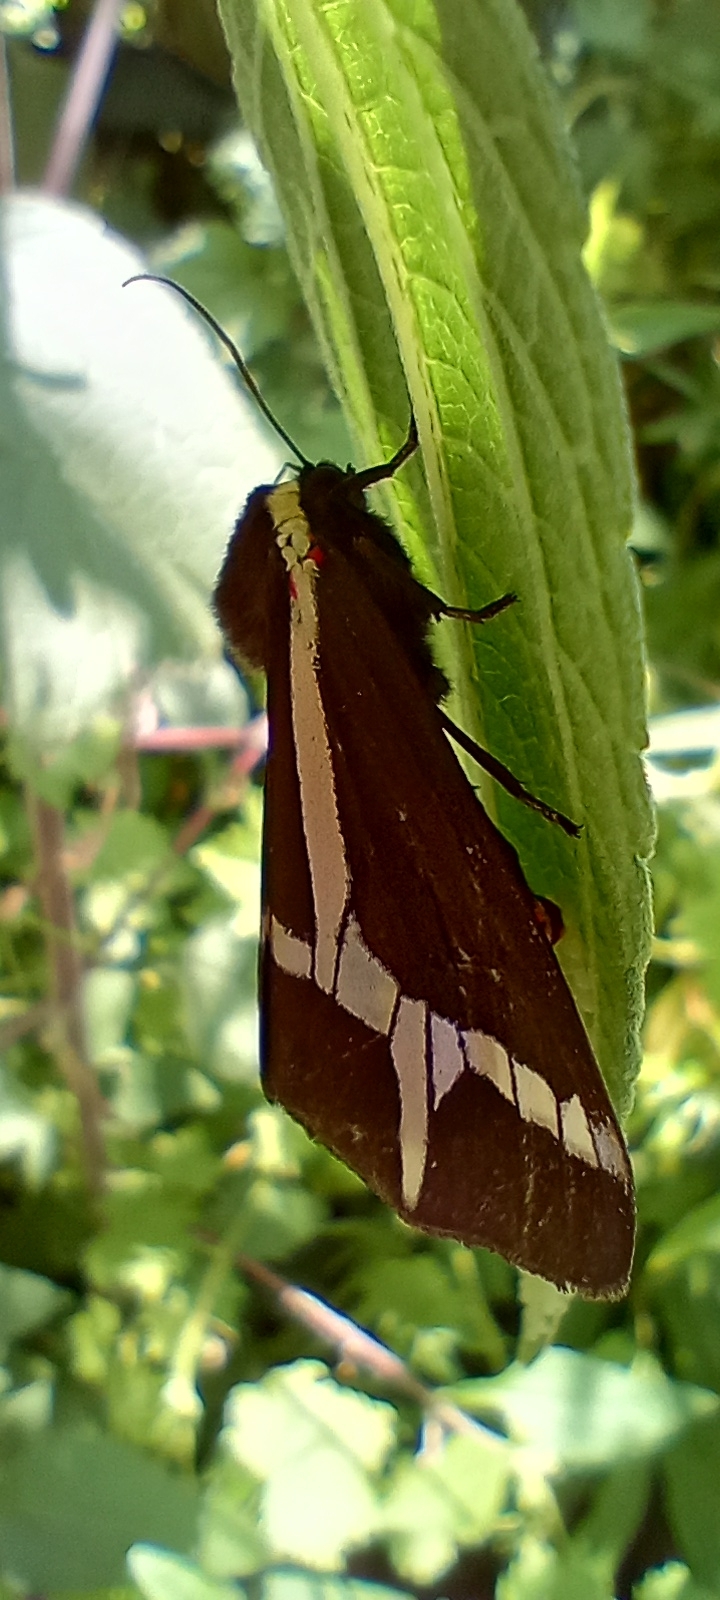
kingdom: Animalia
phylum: Arthropoda
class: Insecta
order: Lepidoptera
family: Erebidae
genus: Dysschema
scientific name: Dysschema sacrifica
